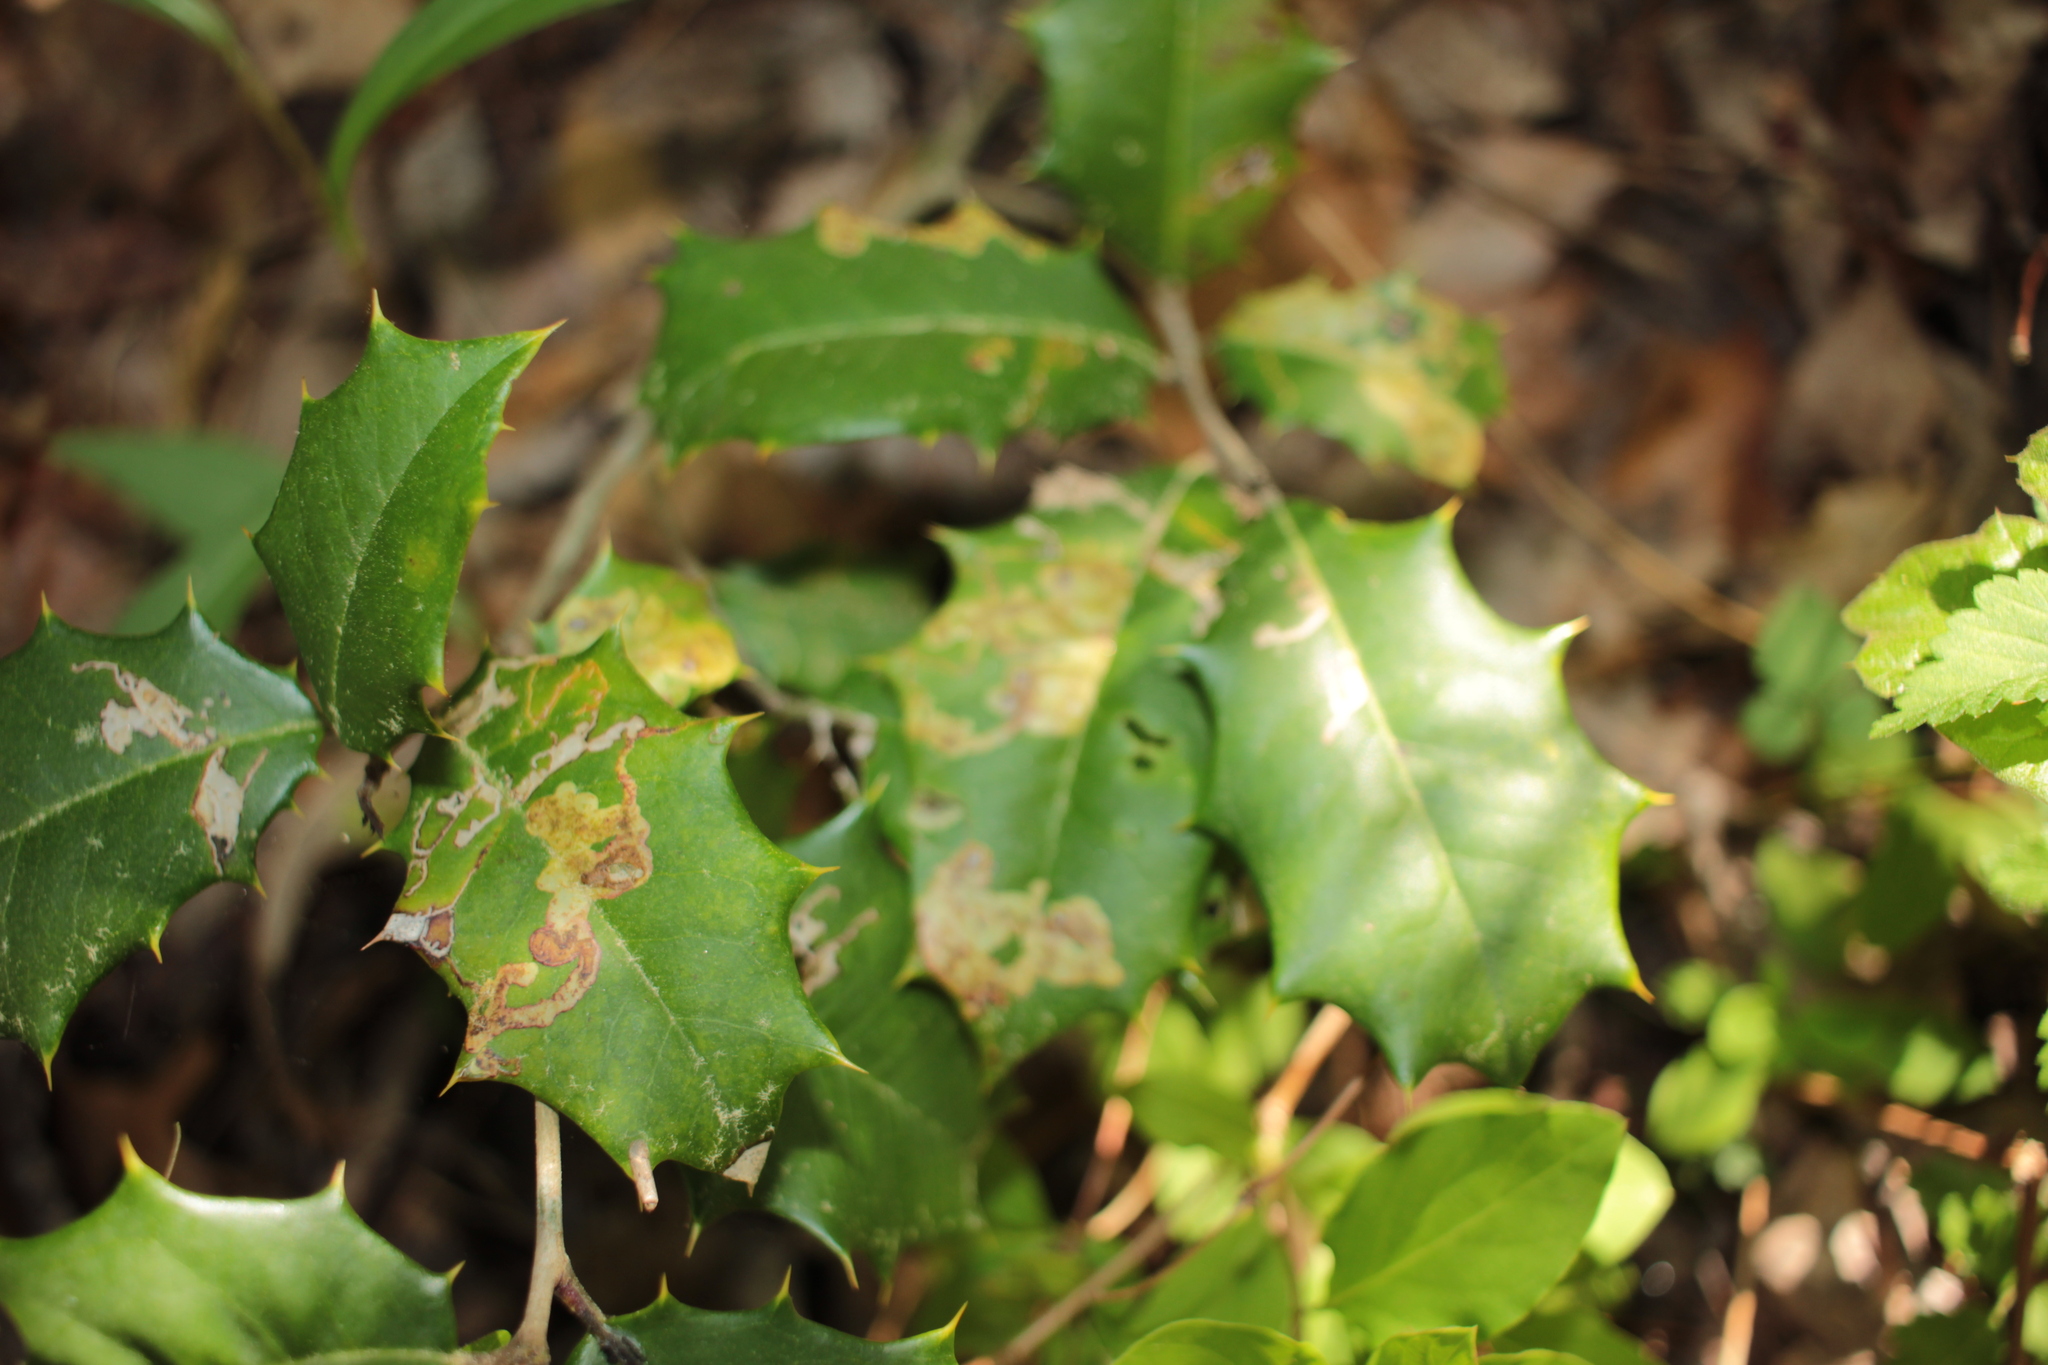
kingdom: Animalia
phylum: Arthropoda
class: Insecta
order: Diptera
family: Agromyzidae
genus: Phytomyza
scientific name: Phytomyza ilicicola
